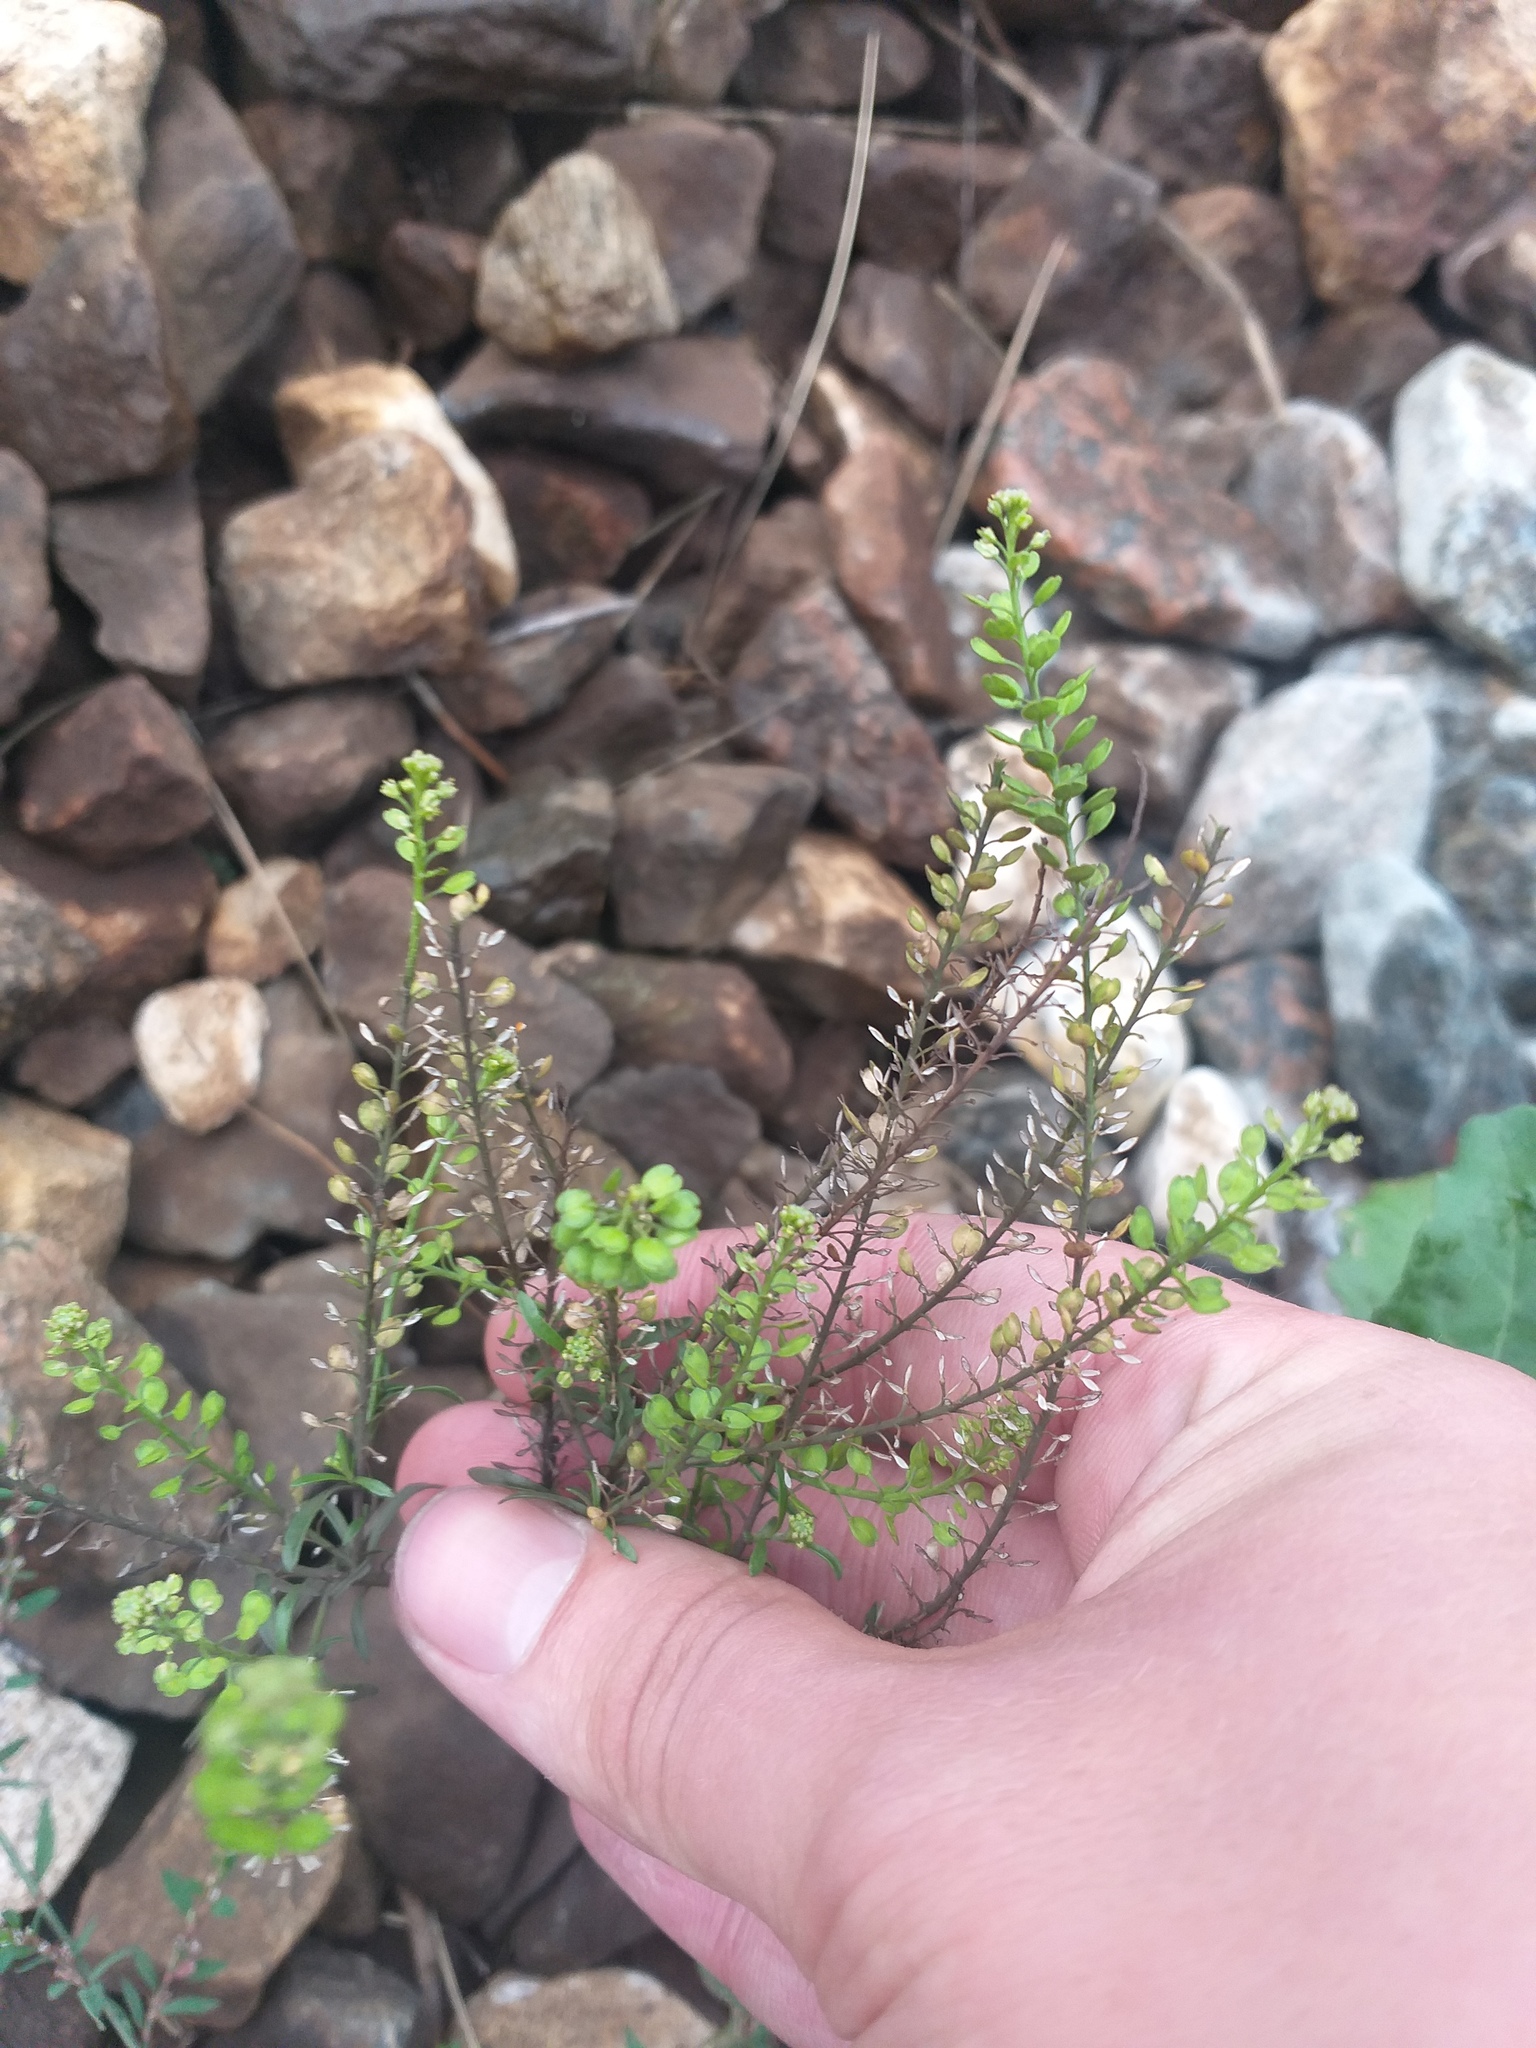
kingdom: Plantae
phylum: Tracheophyta
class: Magnoliopsida
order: Brassicales
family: Brassicaceae
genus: Lepidium
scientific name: Lepidium densiflorum
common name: Miner's pepperwort
